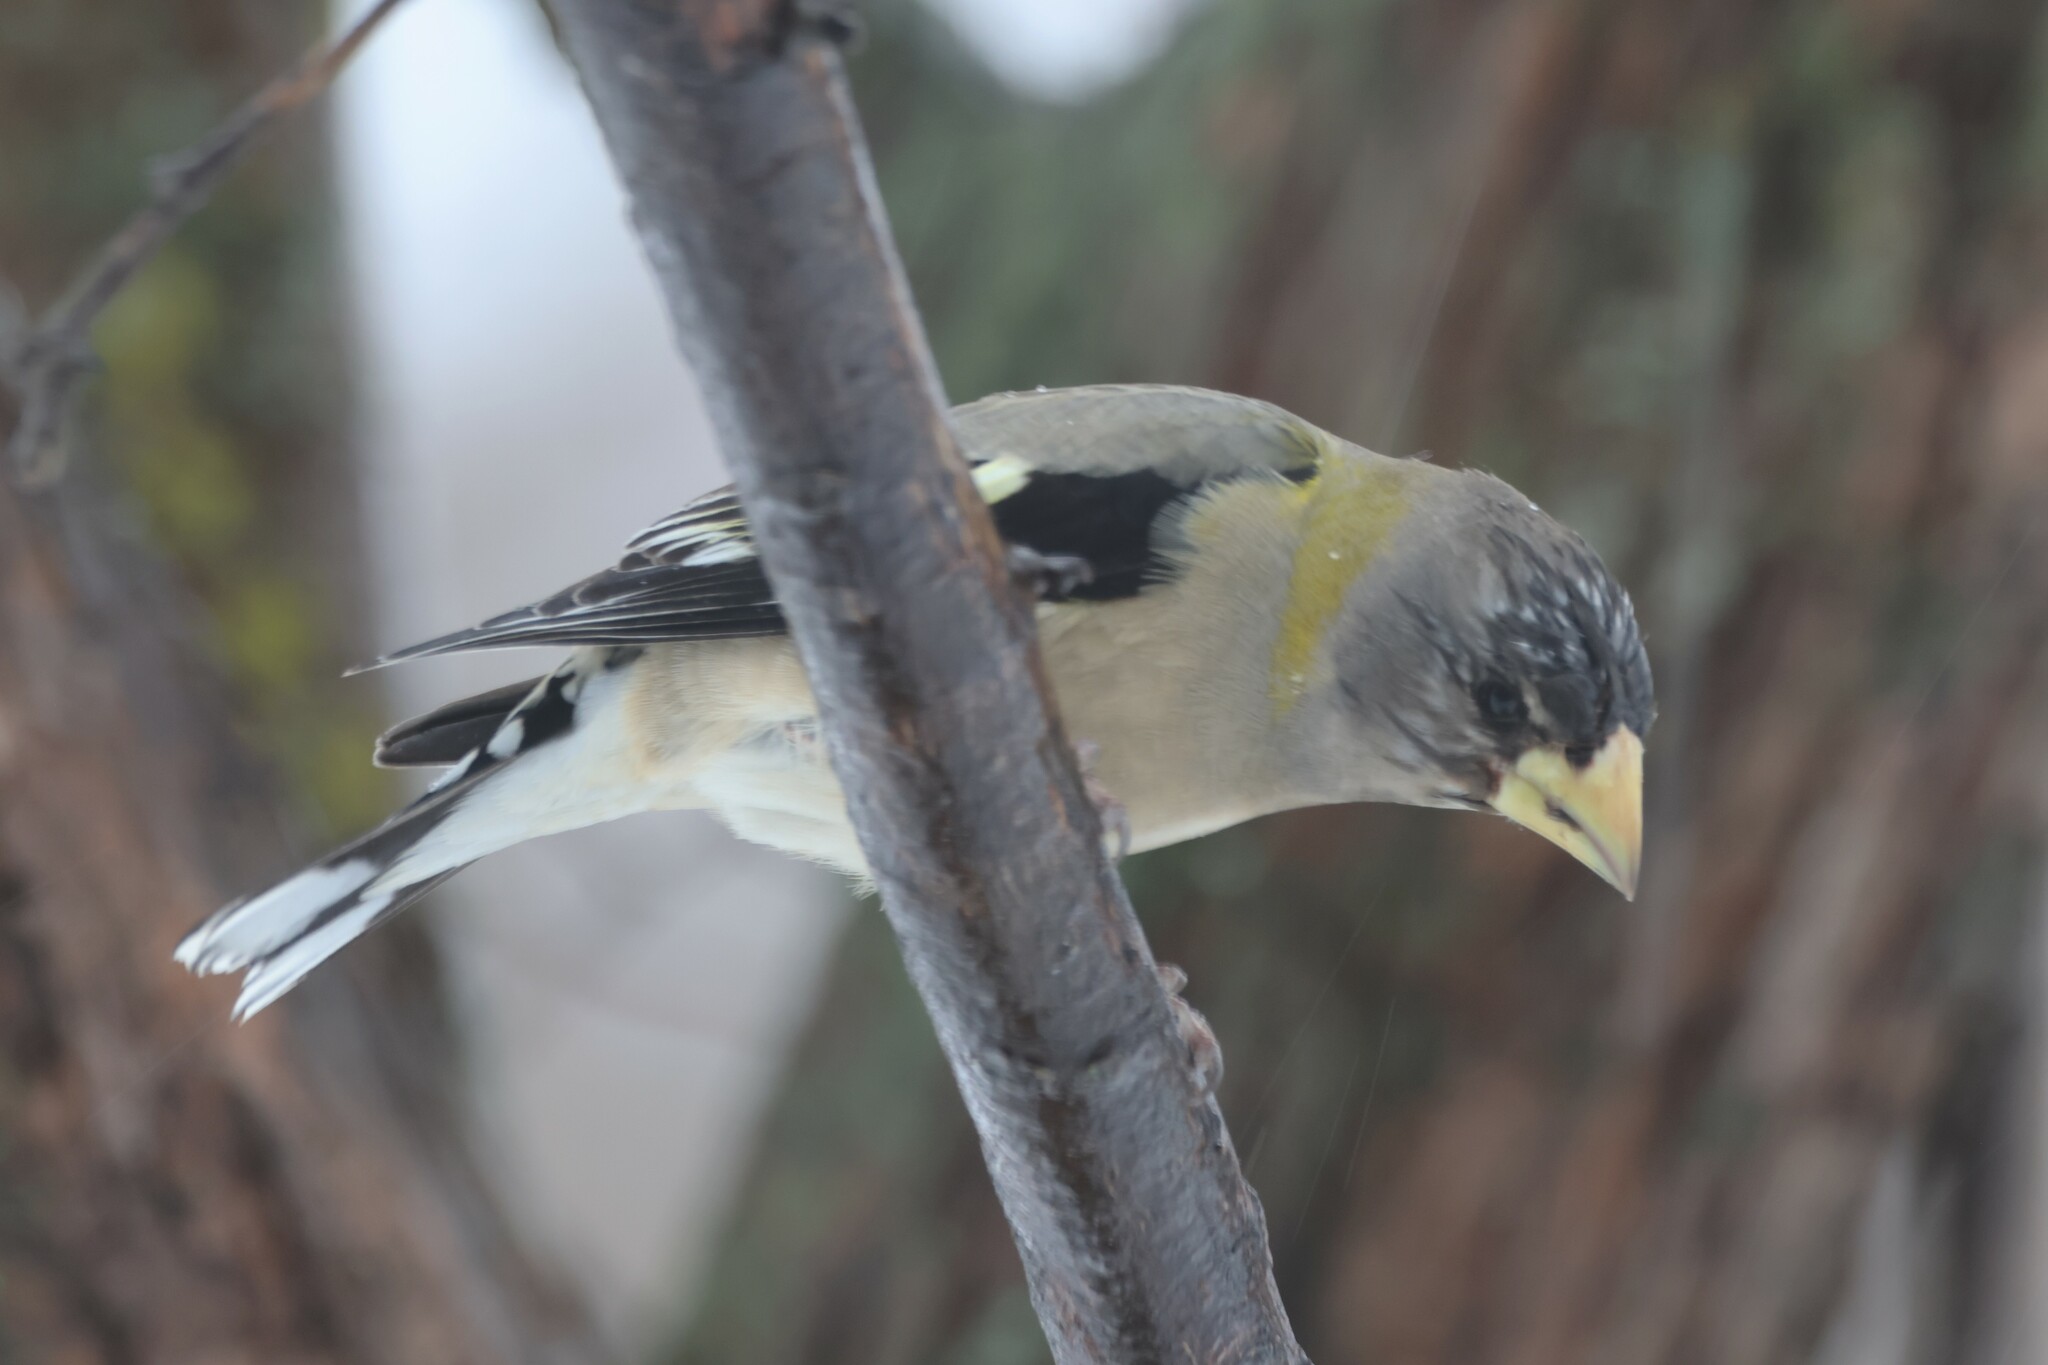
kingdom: Animalia
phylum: Chordata
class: Aves
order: Passeriformes
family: Fringillidae
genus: Hesperiphona
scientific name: Hesperiphona vespertina
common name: Evening grosbeak
